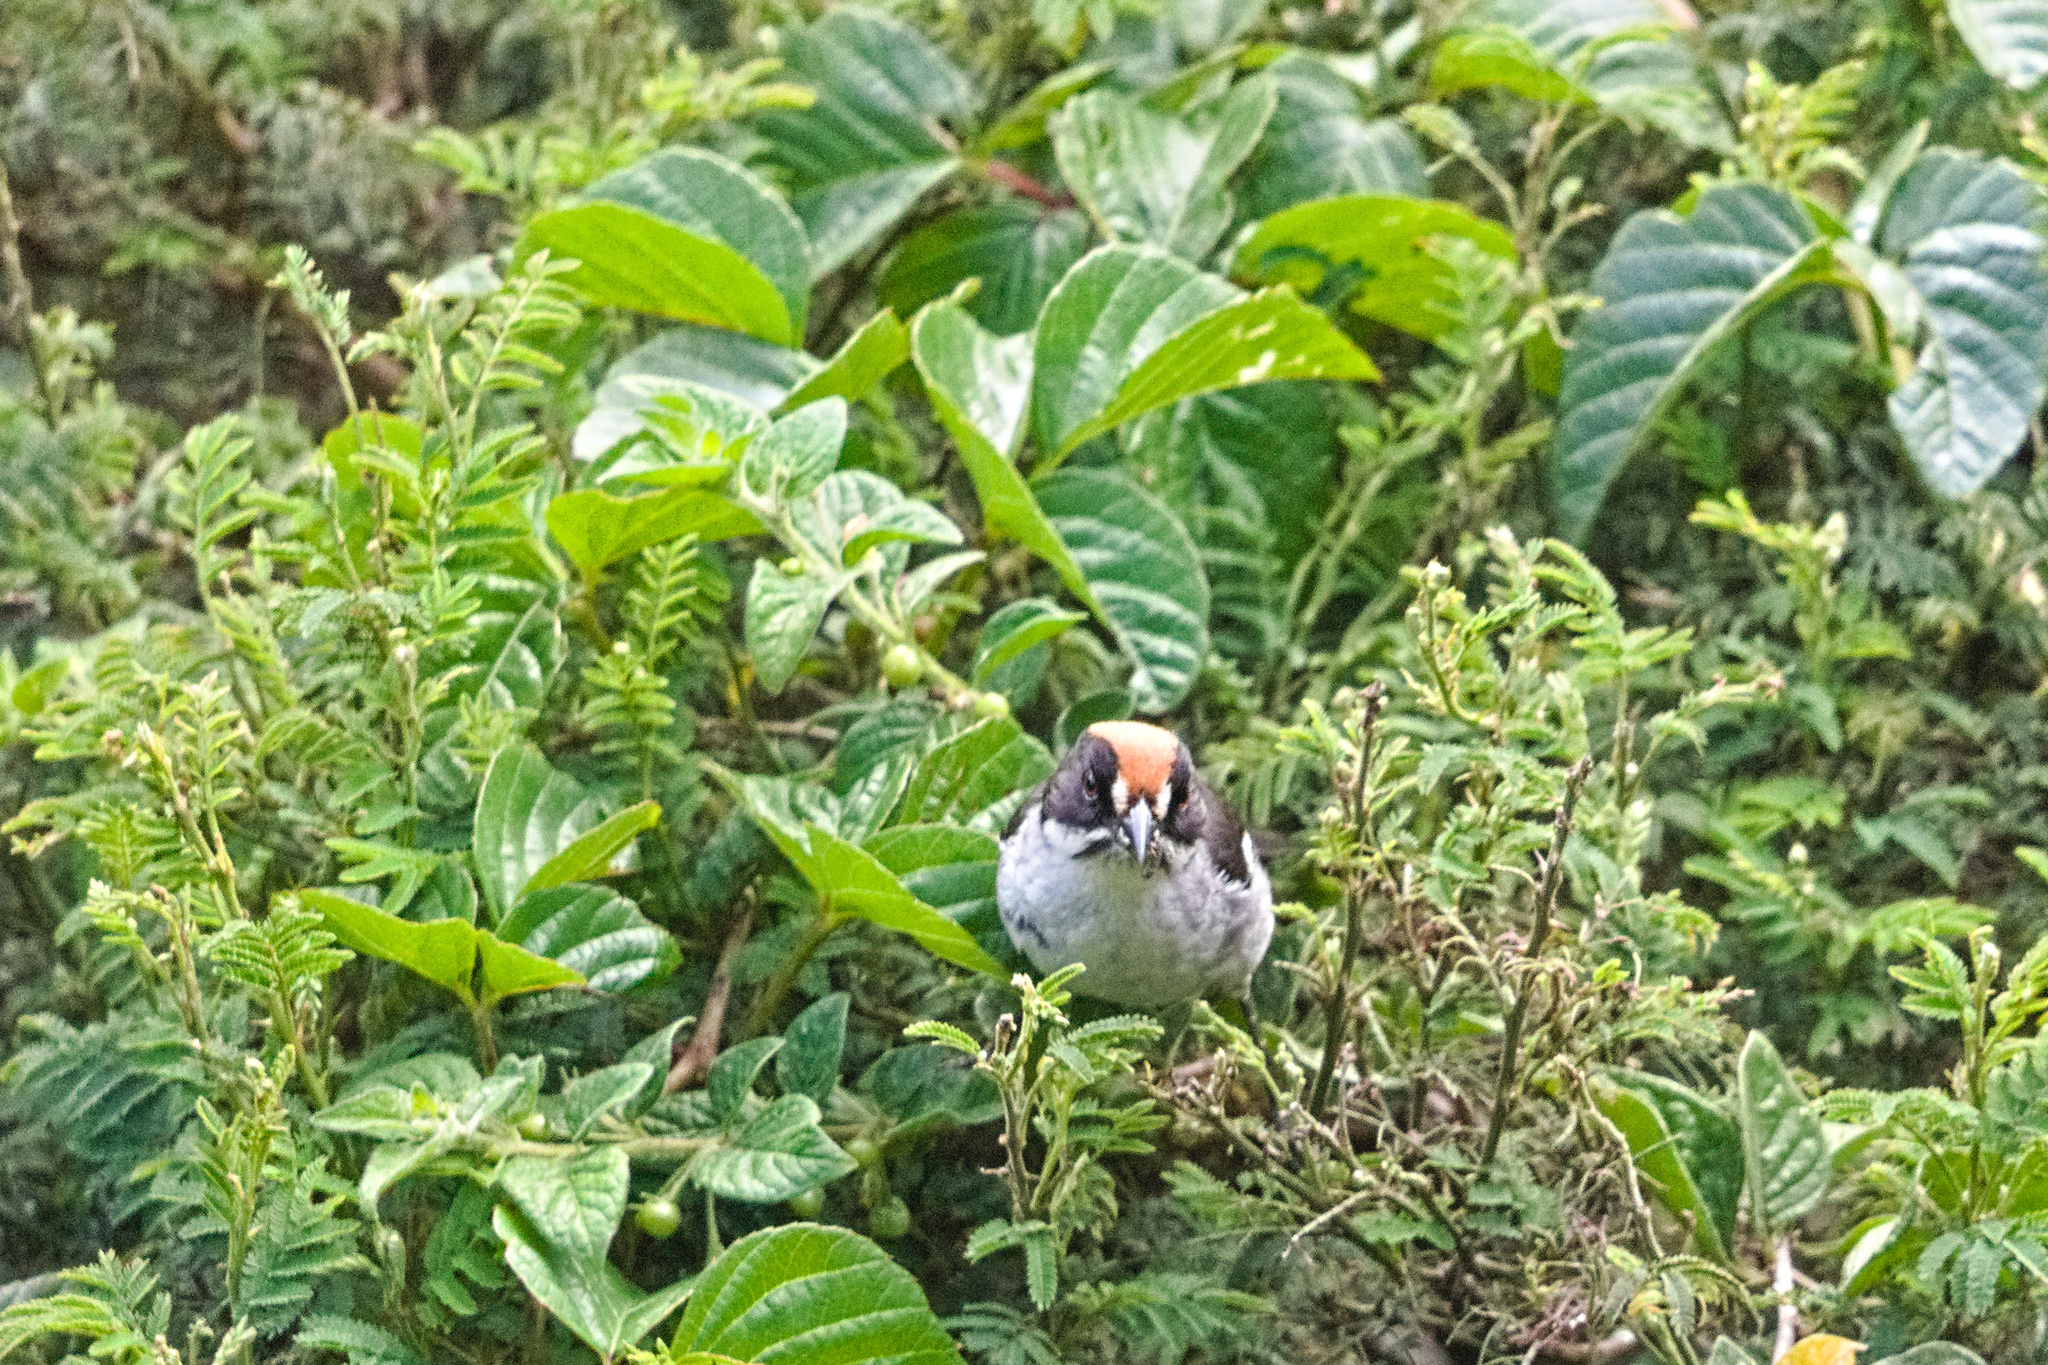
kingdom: Animalia
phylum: Chordata
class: Aves
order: Passeriformes
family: Passerellidae
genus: Atlapetes
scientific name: Atlapetes leucopterus
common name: White-winged brushfinch
